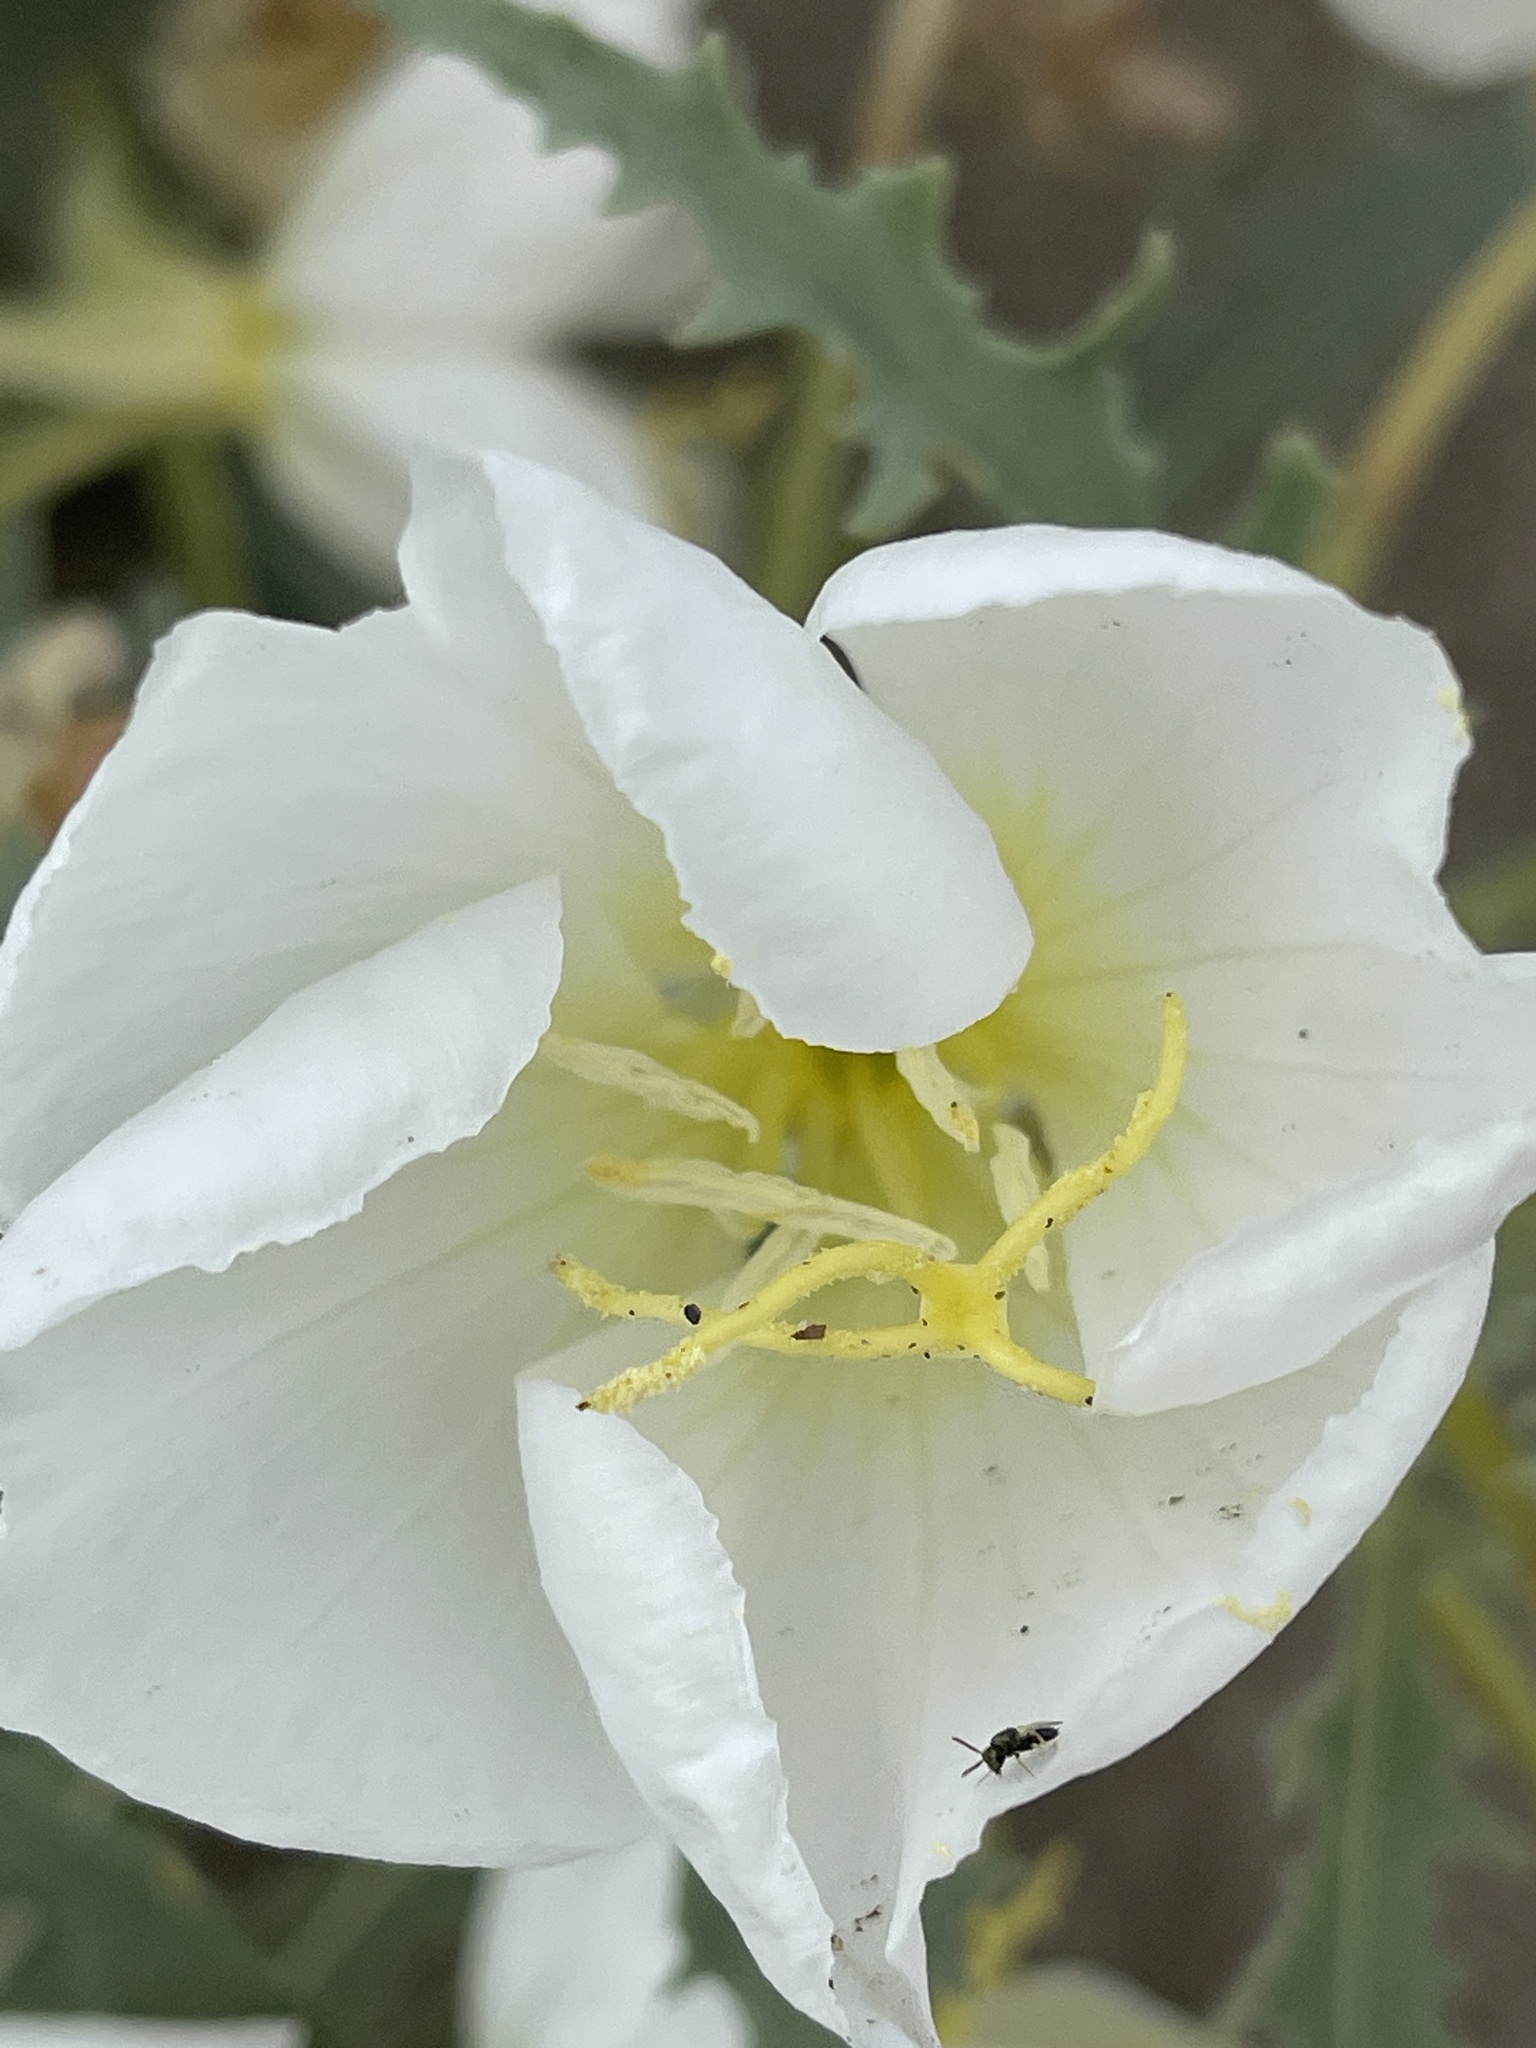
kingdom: Plantae
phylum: Tracheophyta
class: Magnoliopsida
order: Myrtales
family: Onagraceae
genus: Oenothera
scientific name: Oenothera deltoides
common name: Basket evening-primrose
